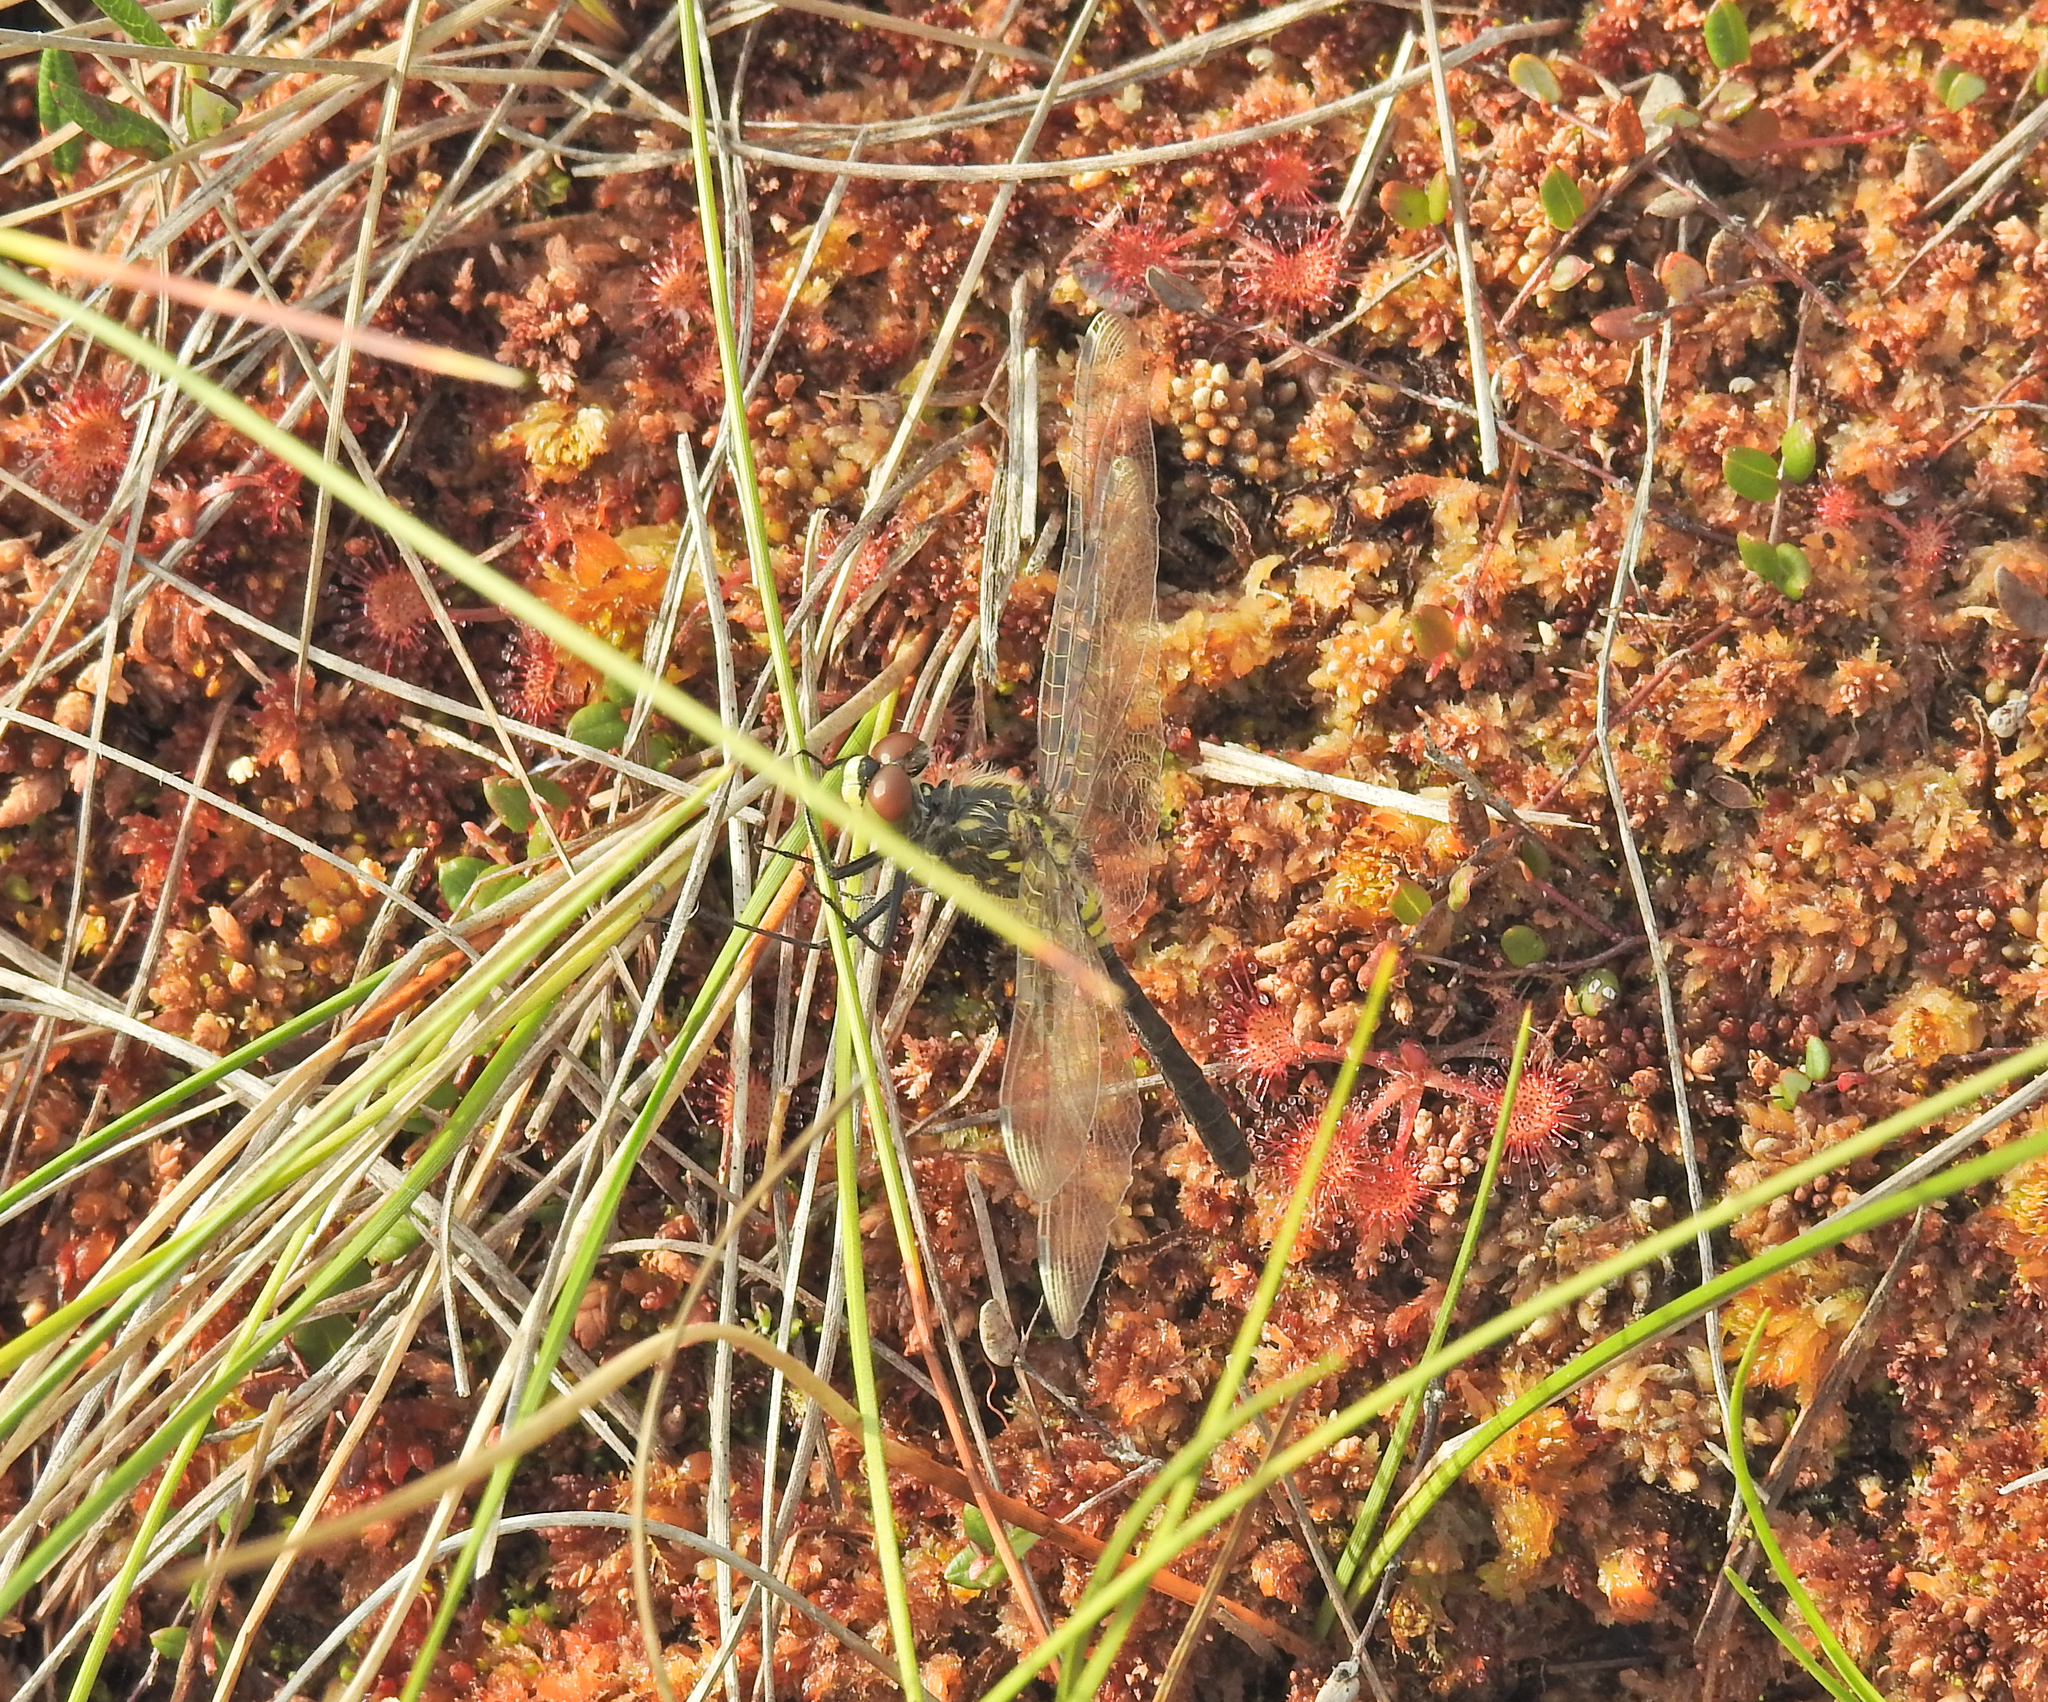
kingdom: Animalia
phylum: Arthropoda
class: Insecta
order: Odonata
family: Libellulidae
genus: Leucorrhinia
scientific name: Leucorrhinia albifrons
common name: Dark whiteface
